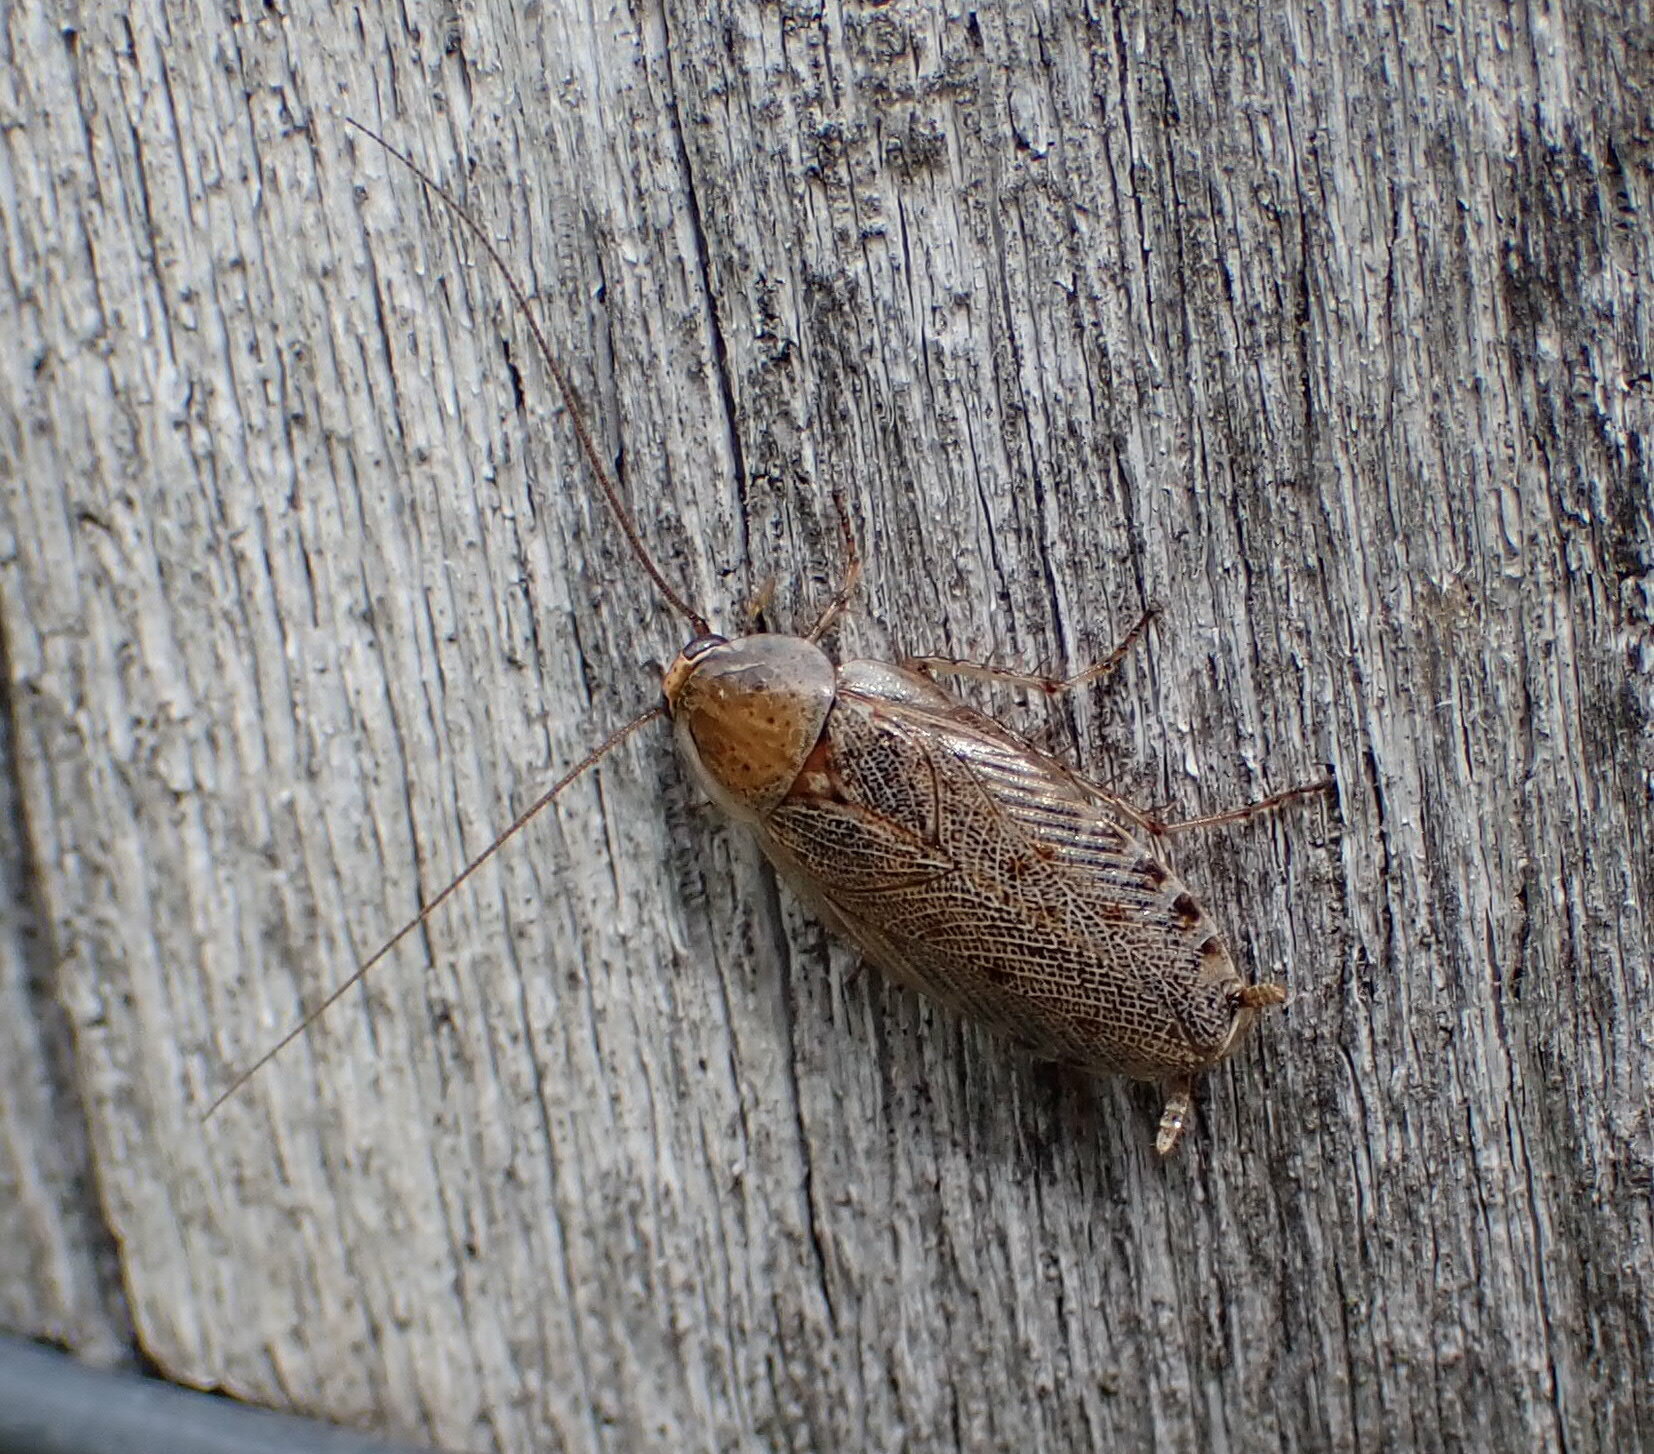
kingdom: Animalia
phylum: Arthropoda
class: Insecta
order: Blattodea
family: Ectobiidae
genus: Ectobius
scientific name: Ectobius vittiventris
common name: Garden cockroach
